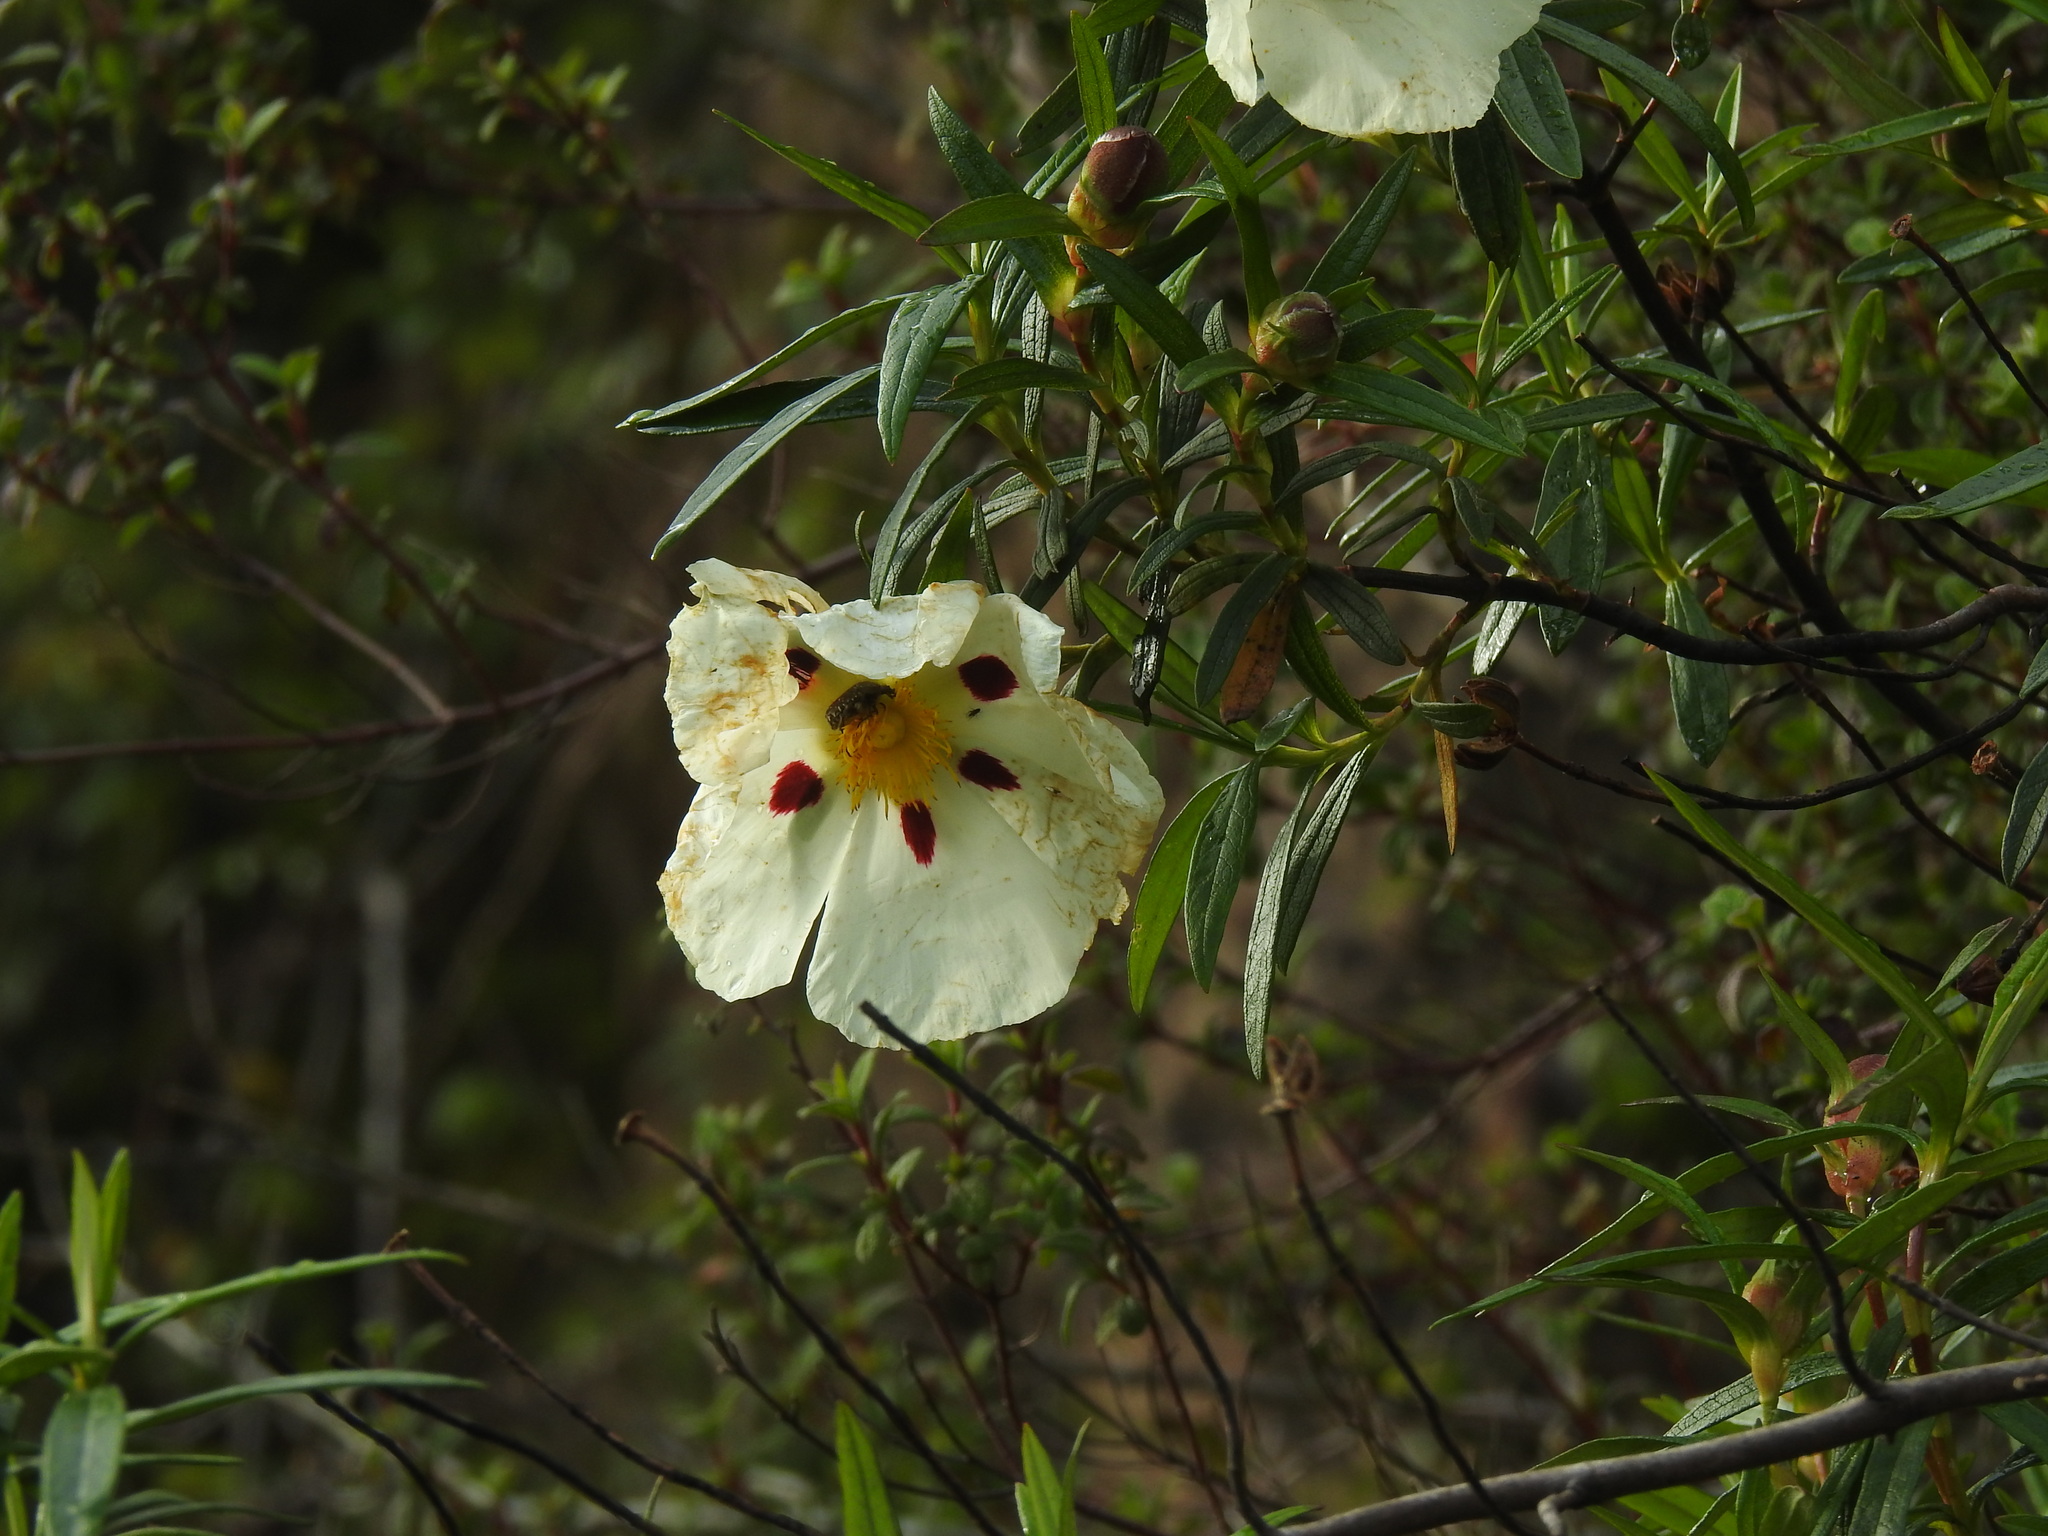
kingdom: Plantae
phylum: Tracheophyta
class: Magnoliopsida
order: Malvales
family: Cistaceae
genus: Cistus
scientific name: Cistus ladanifer
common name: Common gum cistus
